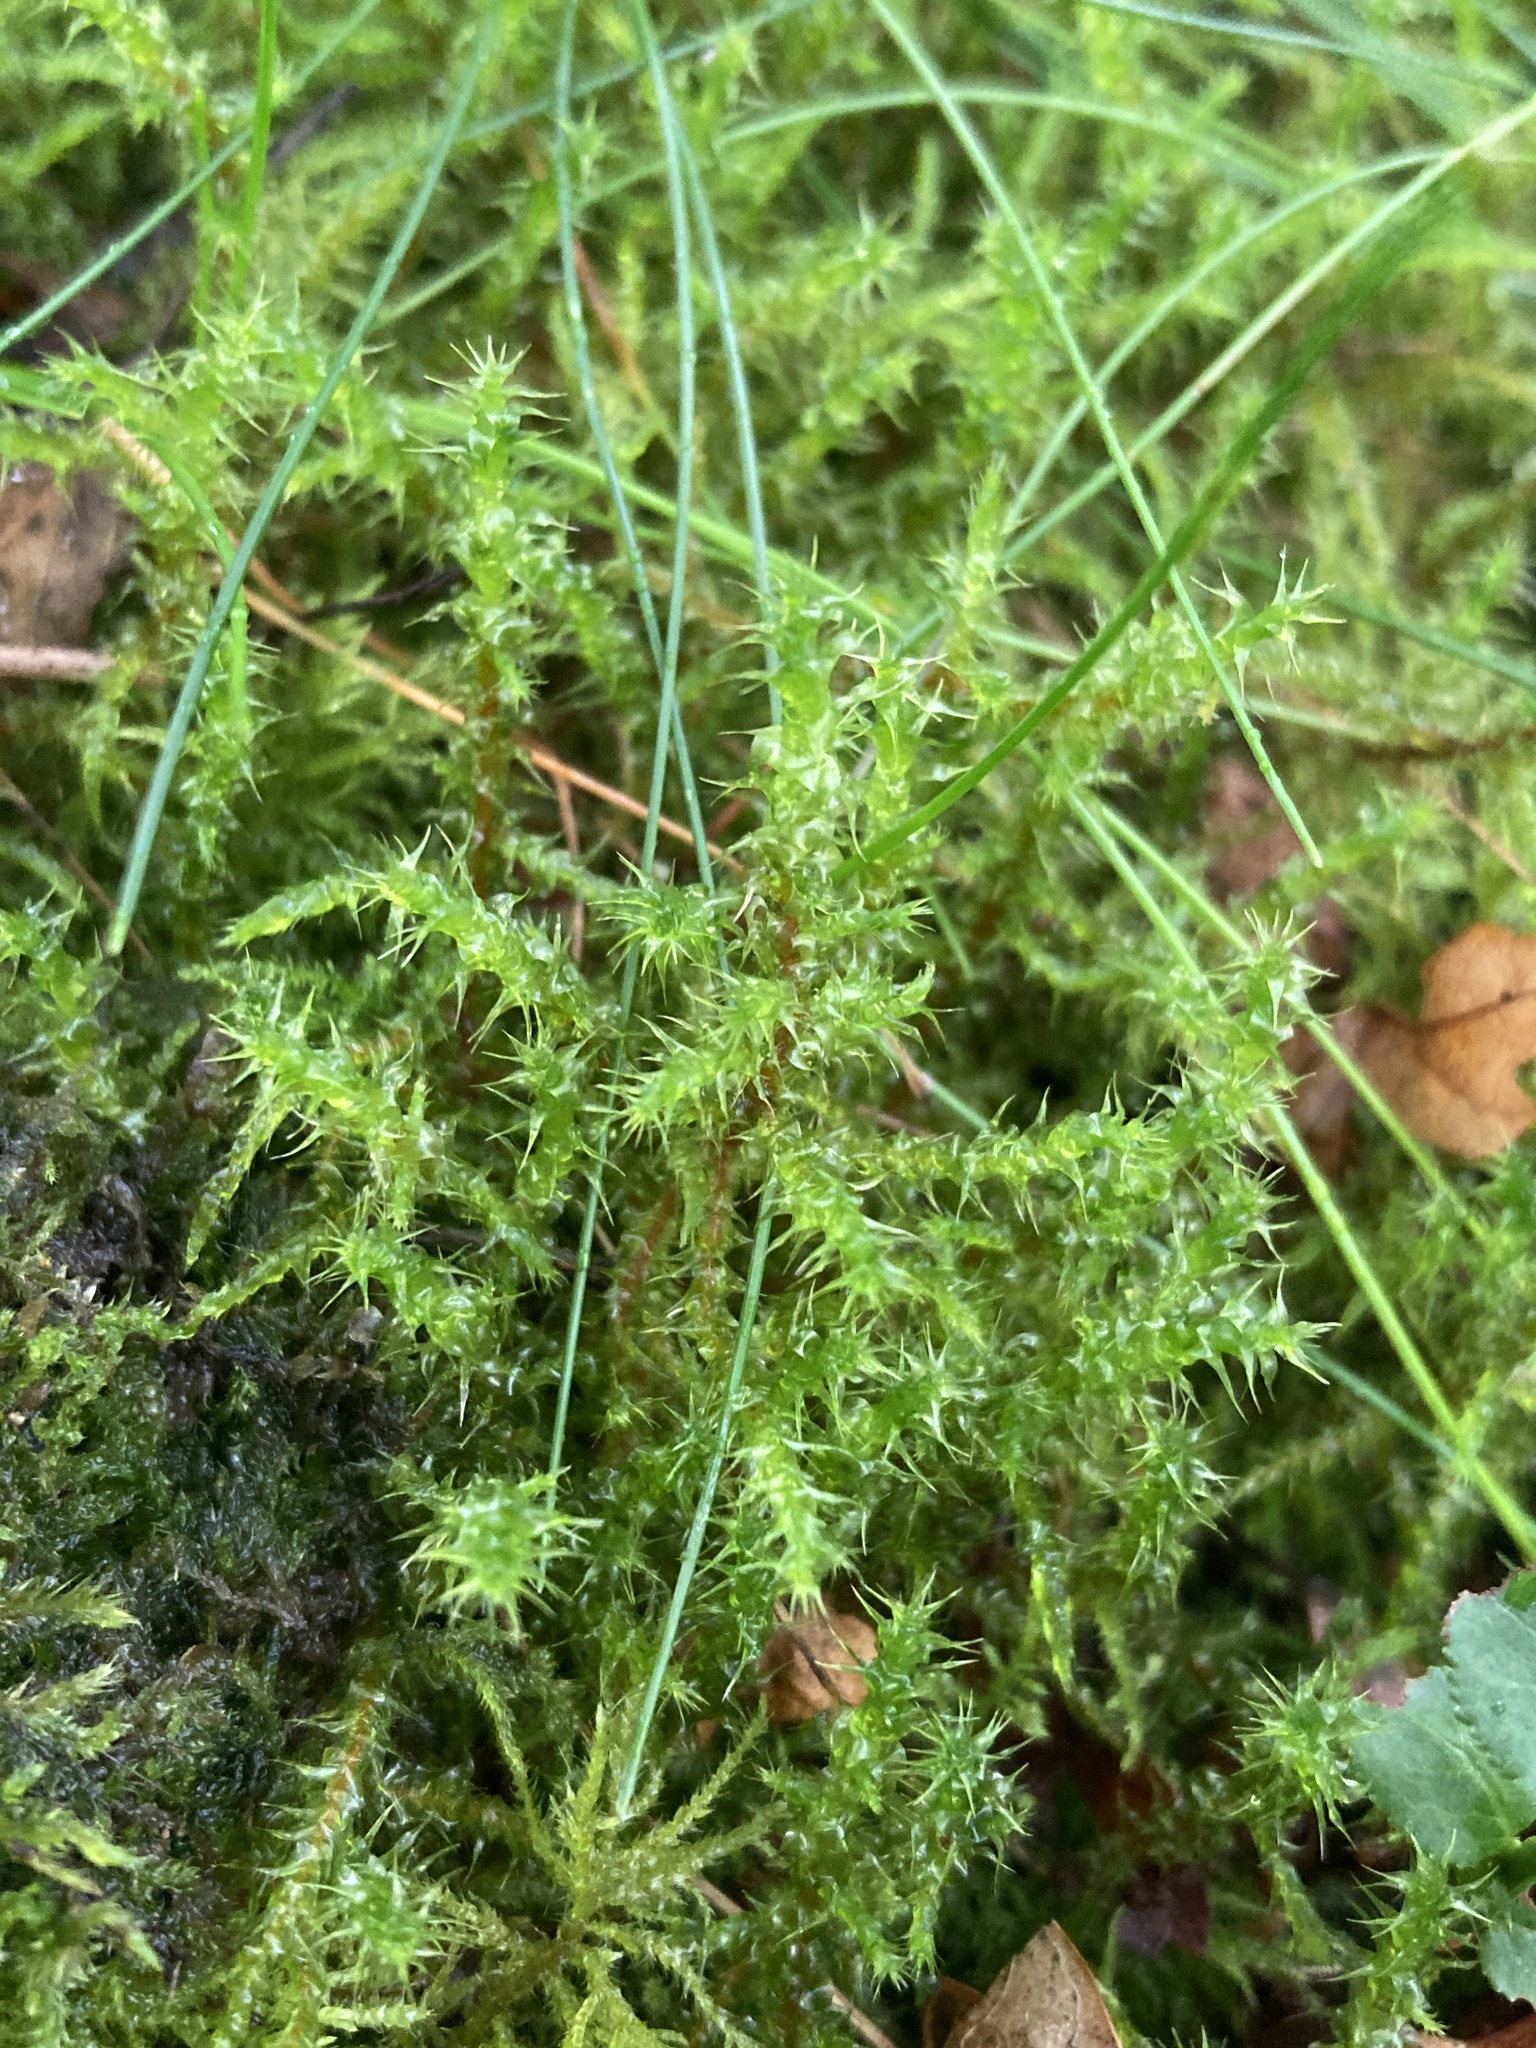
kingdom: Plantae
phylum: Bryophyta
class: Bryopsida
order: Hypnales
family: Hylocomiaceae
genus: Rhytidiadelphus
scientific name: Rhytidiadelphus squarrosus
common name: Springy turf-moss
